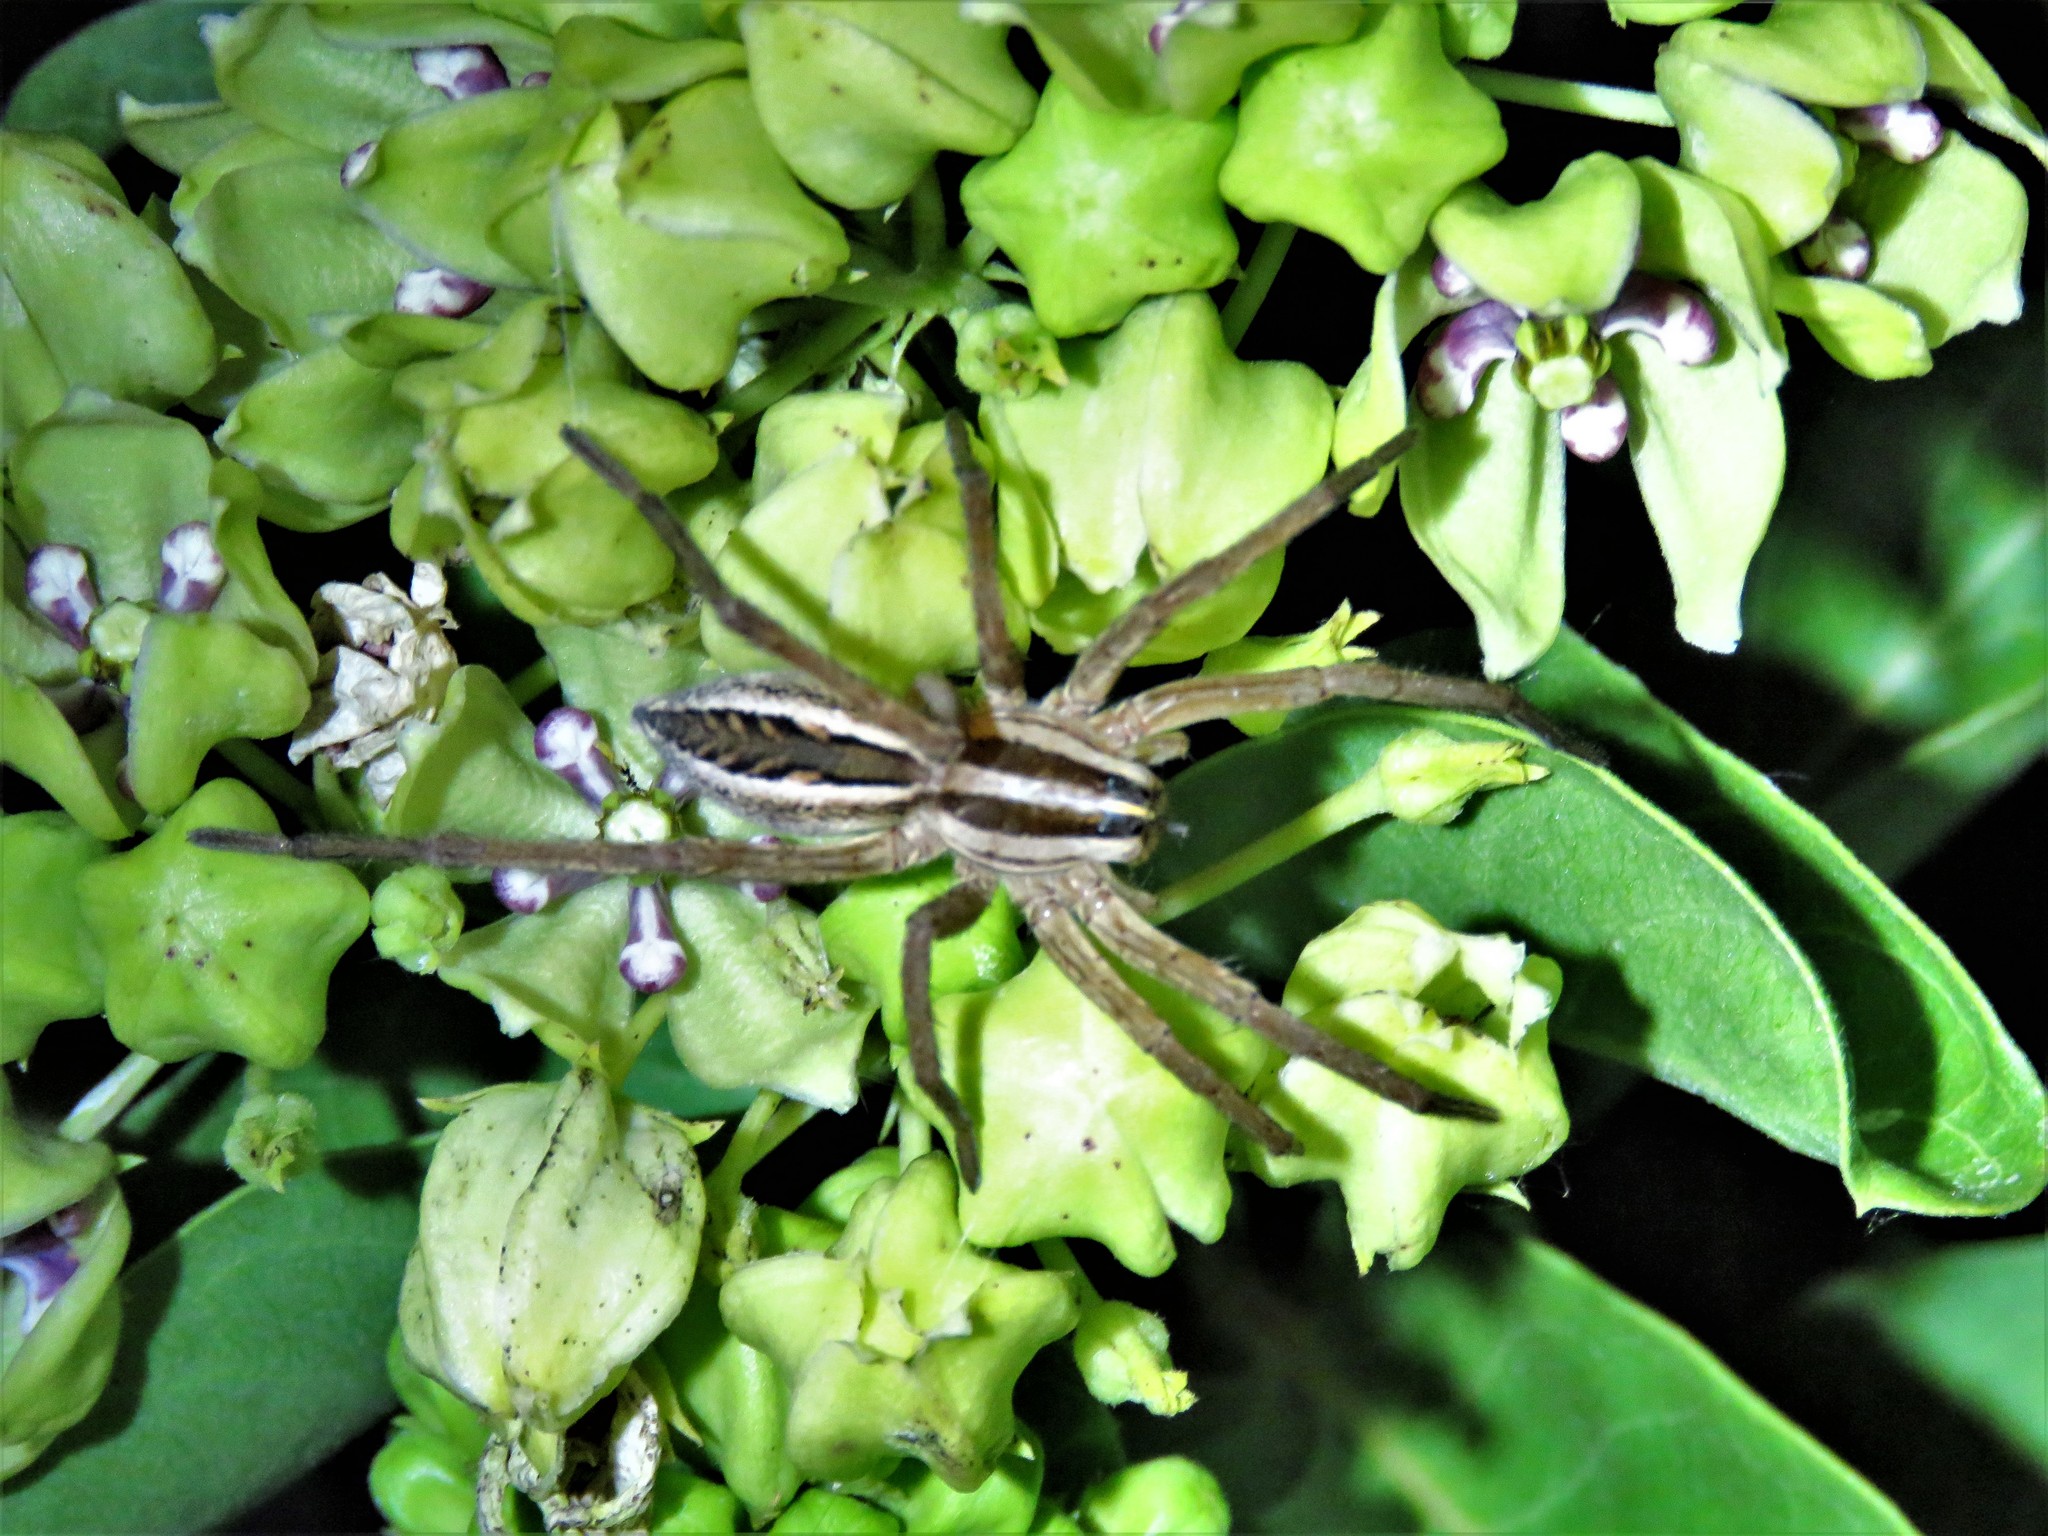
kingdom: Animalia
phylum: Arthropoda
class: Arachnida
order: Araneae
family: Lycosidae
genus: Rabidosa
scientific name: Rabidosa rabida
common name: Rabid wolf spider
